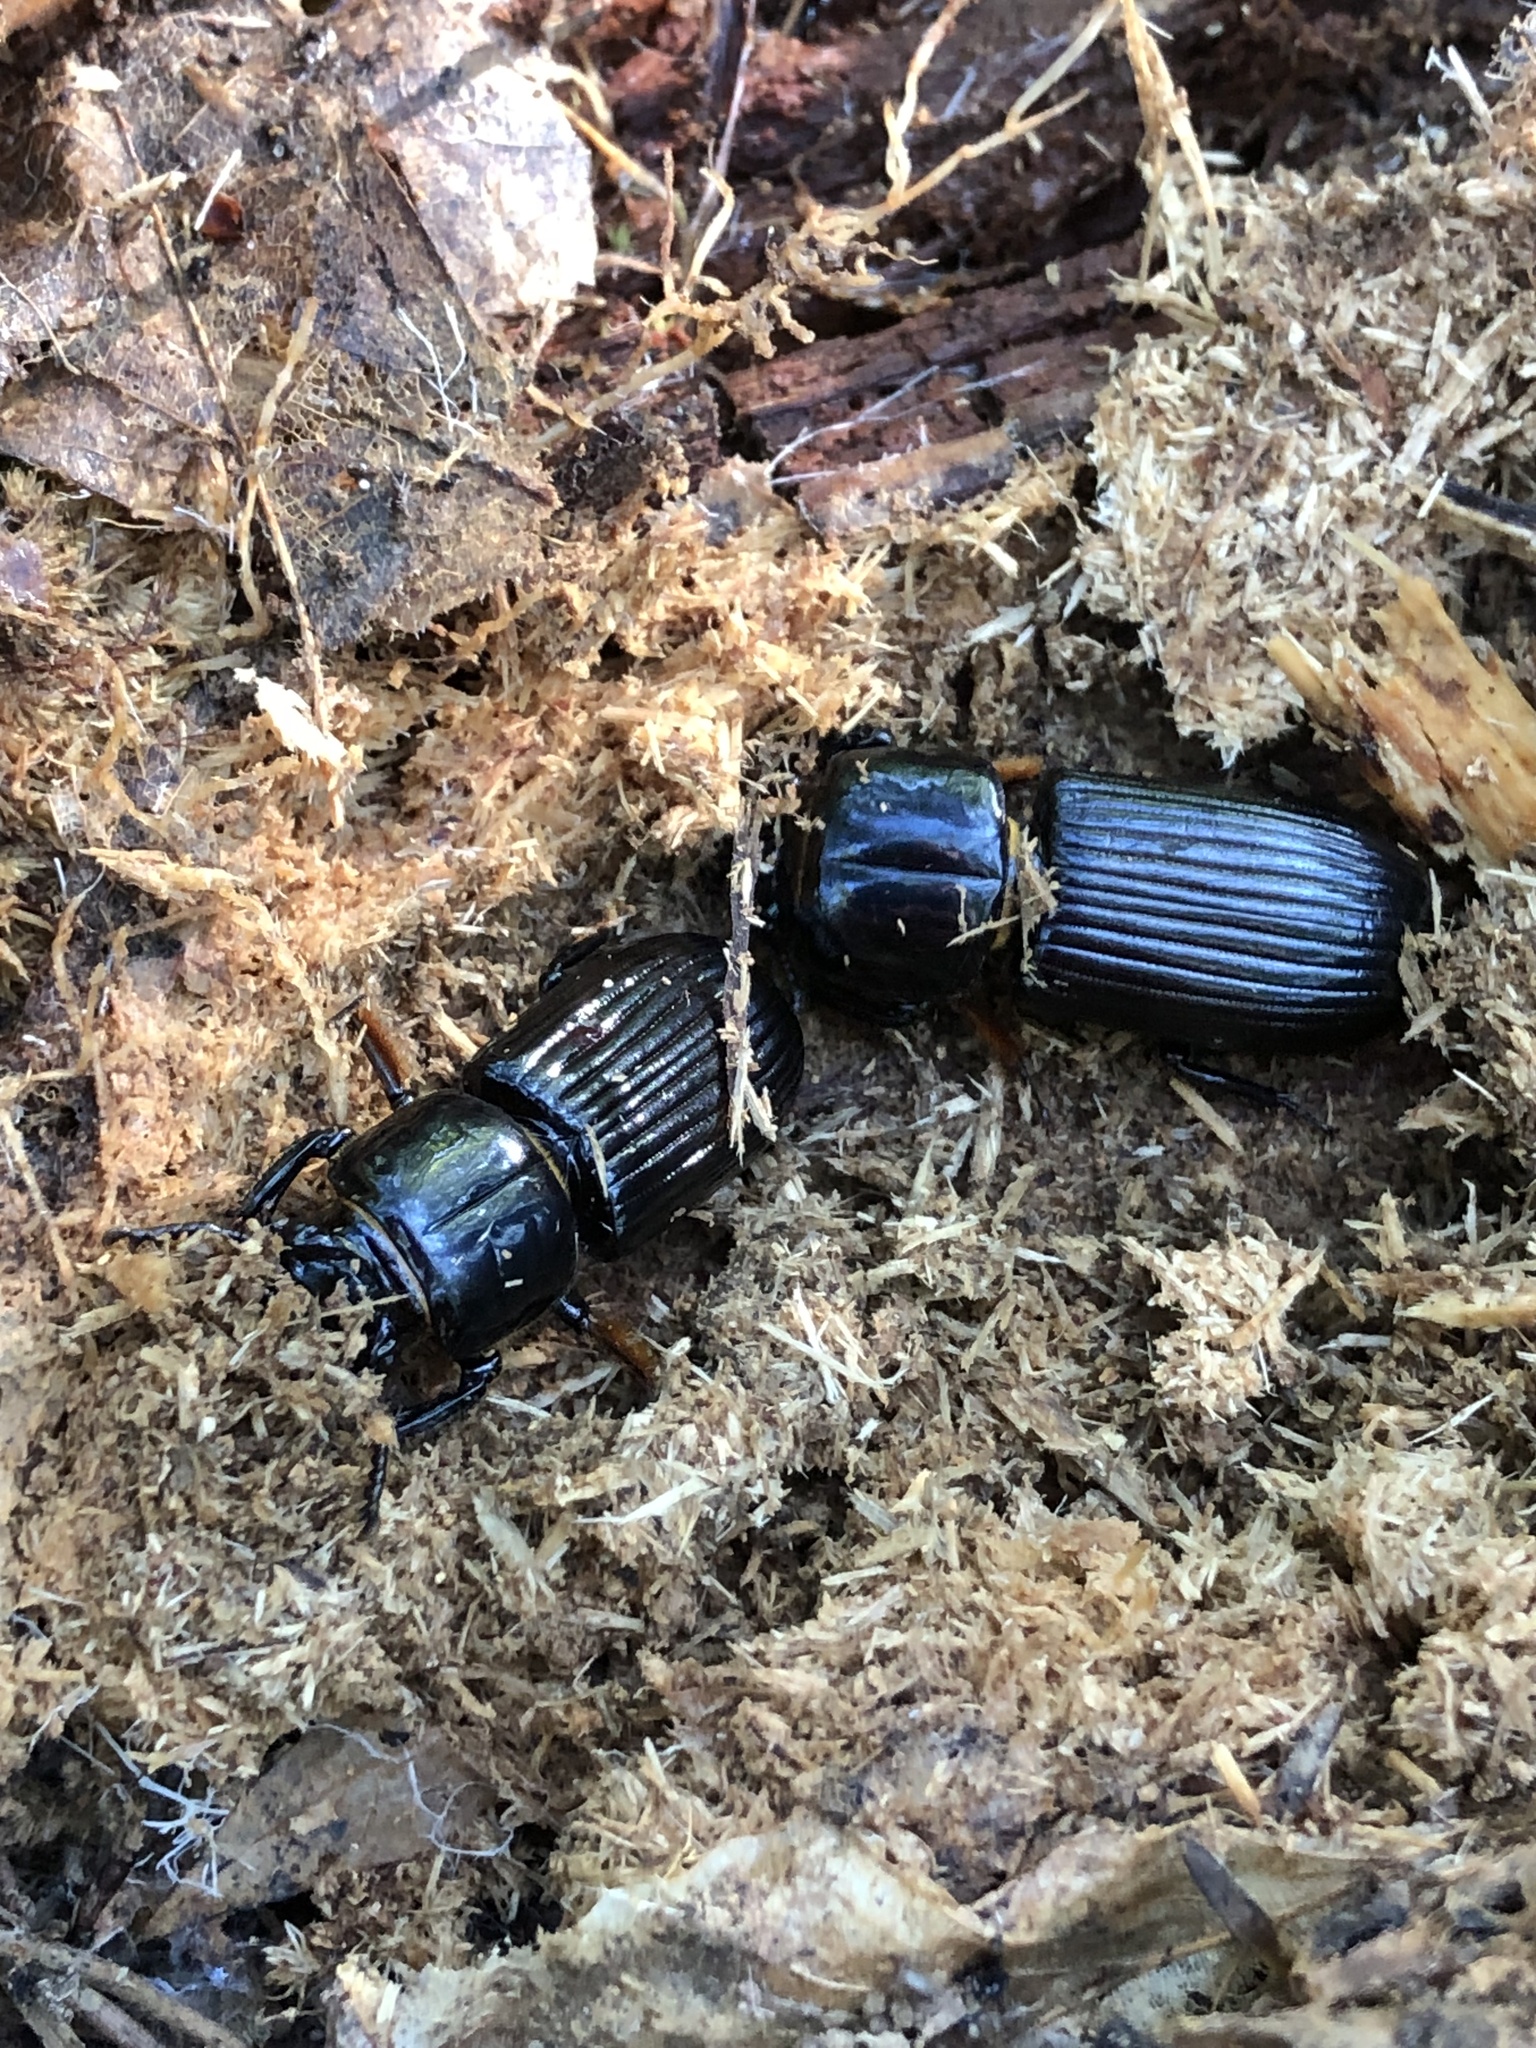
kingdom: Animalia
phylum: Arthropoda
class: Insecta
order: Coleoptera
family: Passalidae
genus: Odontotaenius
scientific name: Odontotaenius disjunctus
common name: Patent leather beetle
